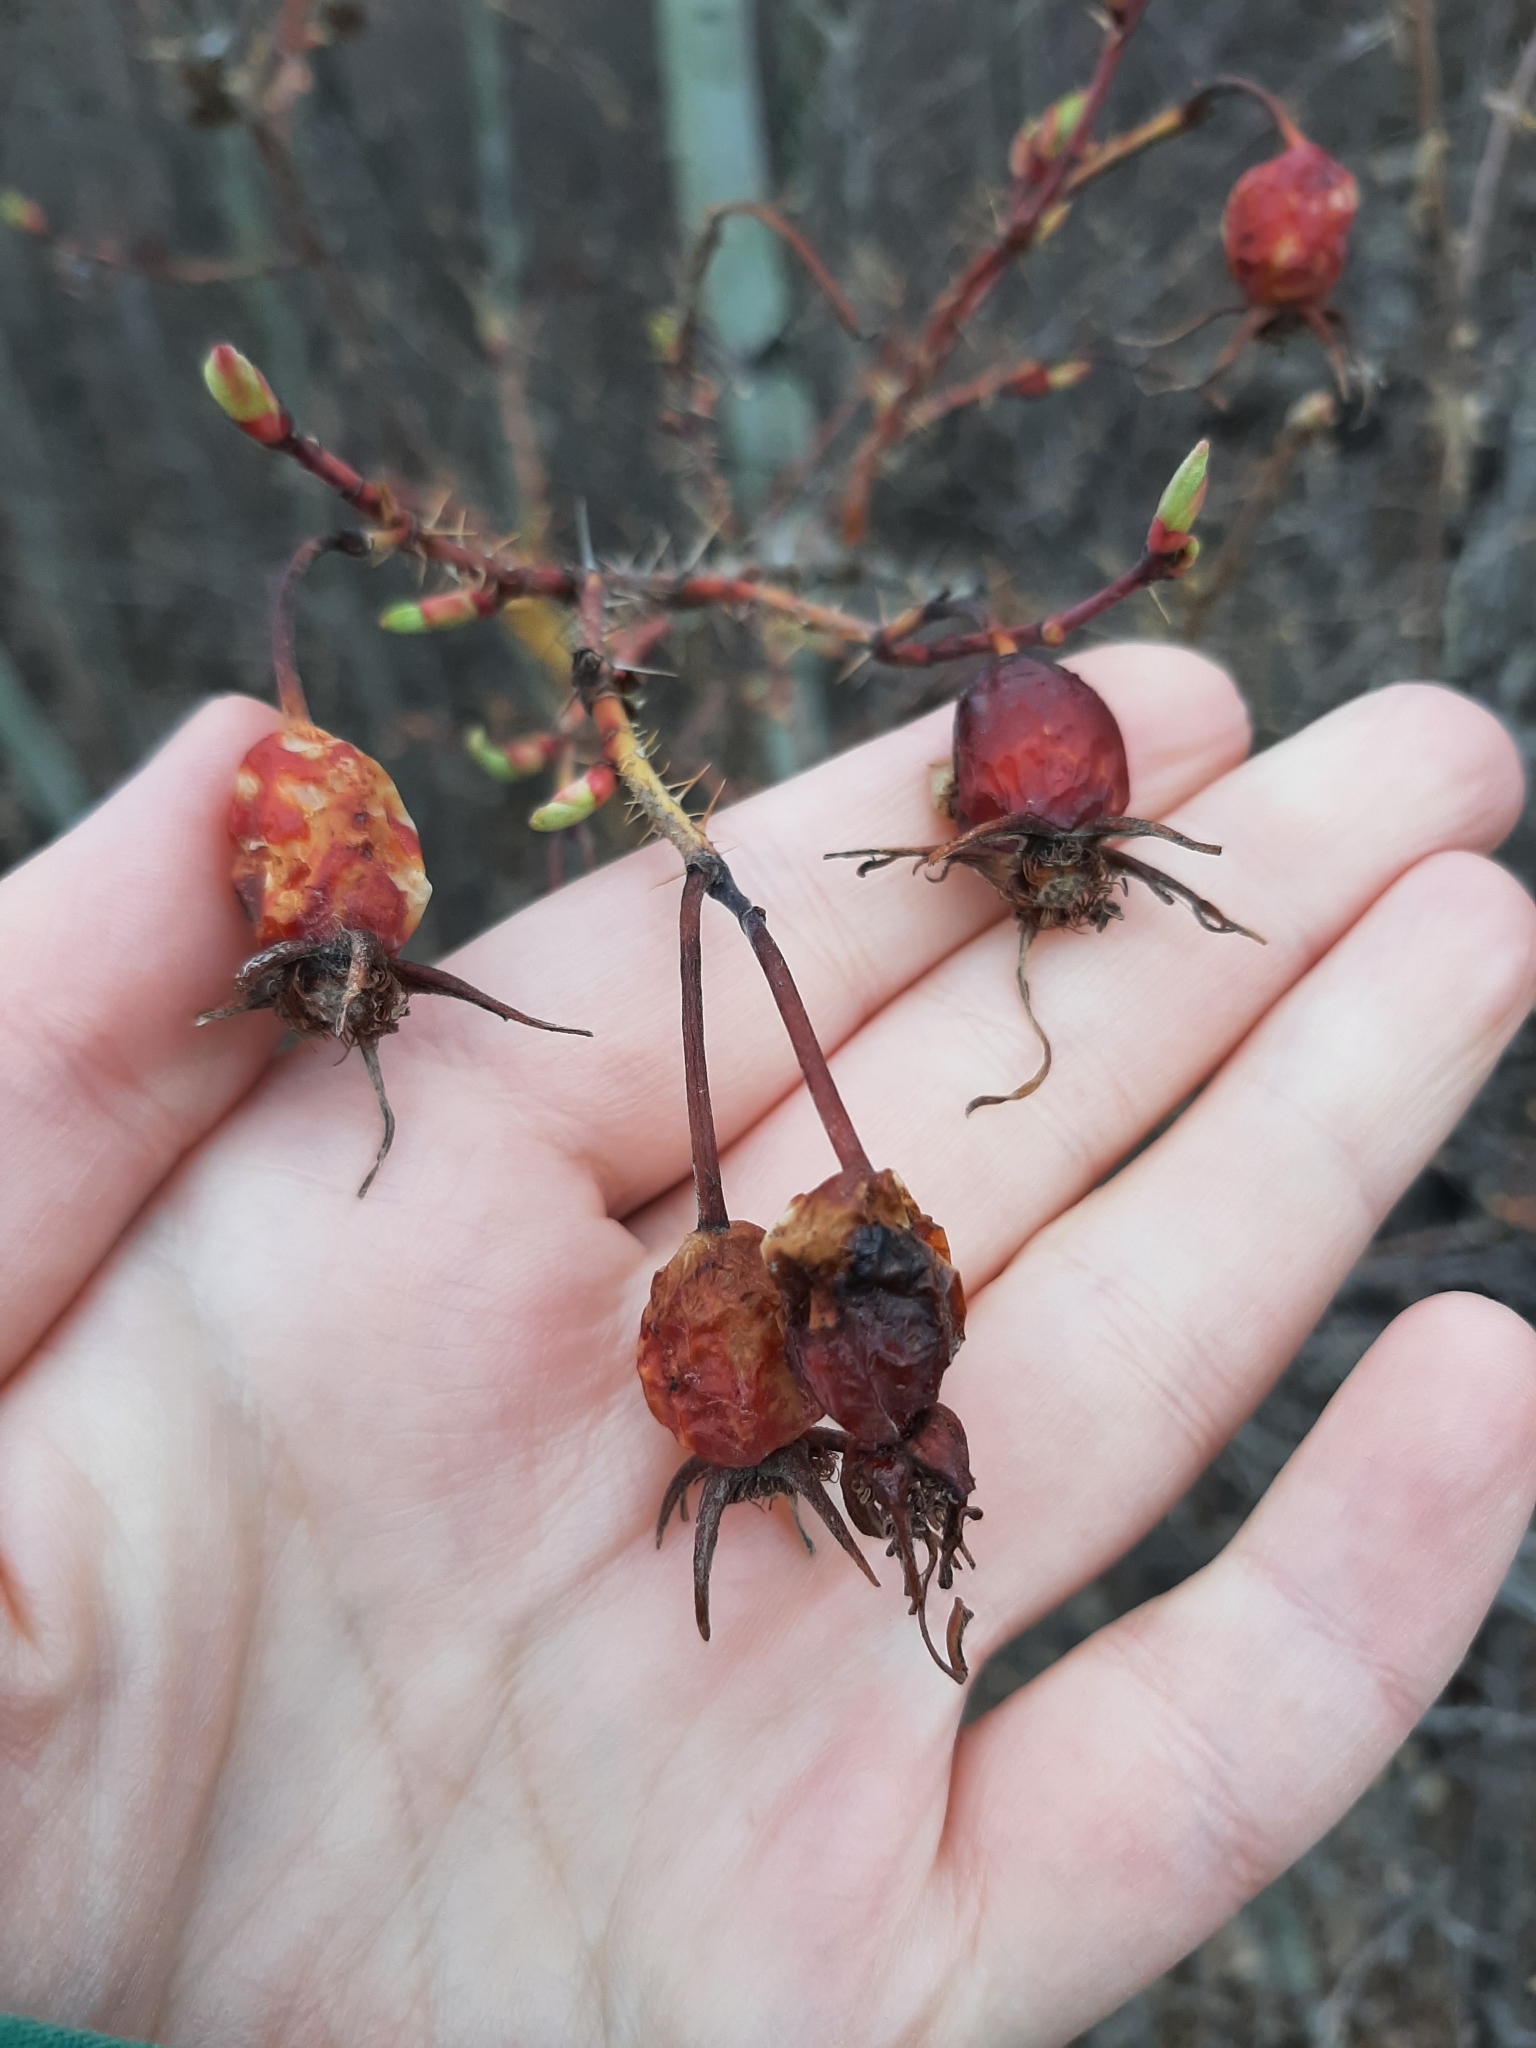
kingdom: Plantae
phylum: Tracheophyta
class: Magnoliopsida
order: Rosales
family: Rosaceae
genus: Rosa
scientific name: Rosa acicularis
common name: Prickly rose
